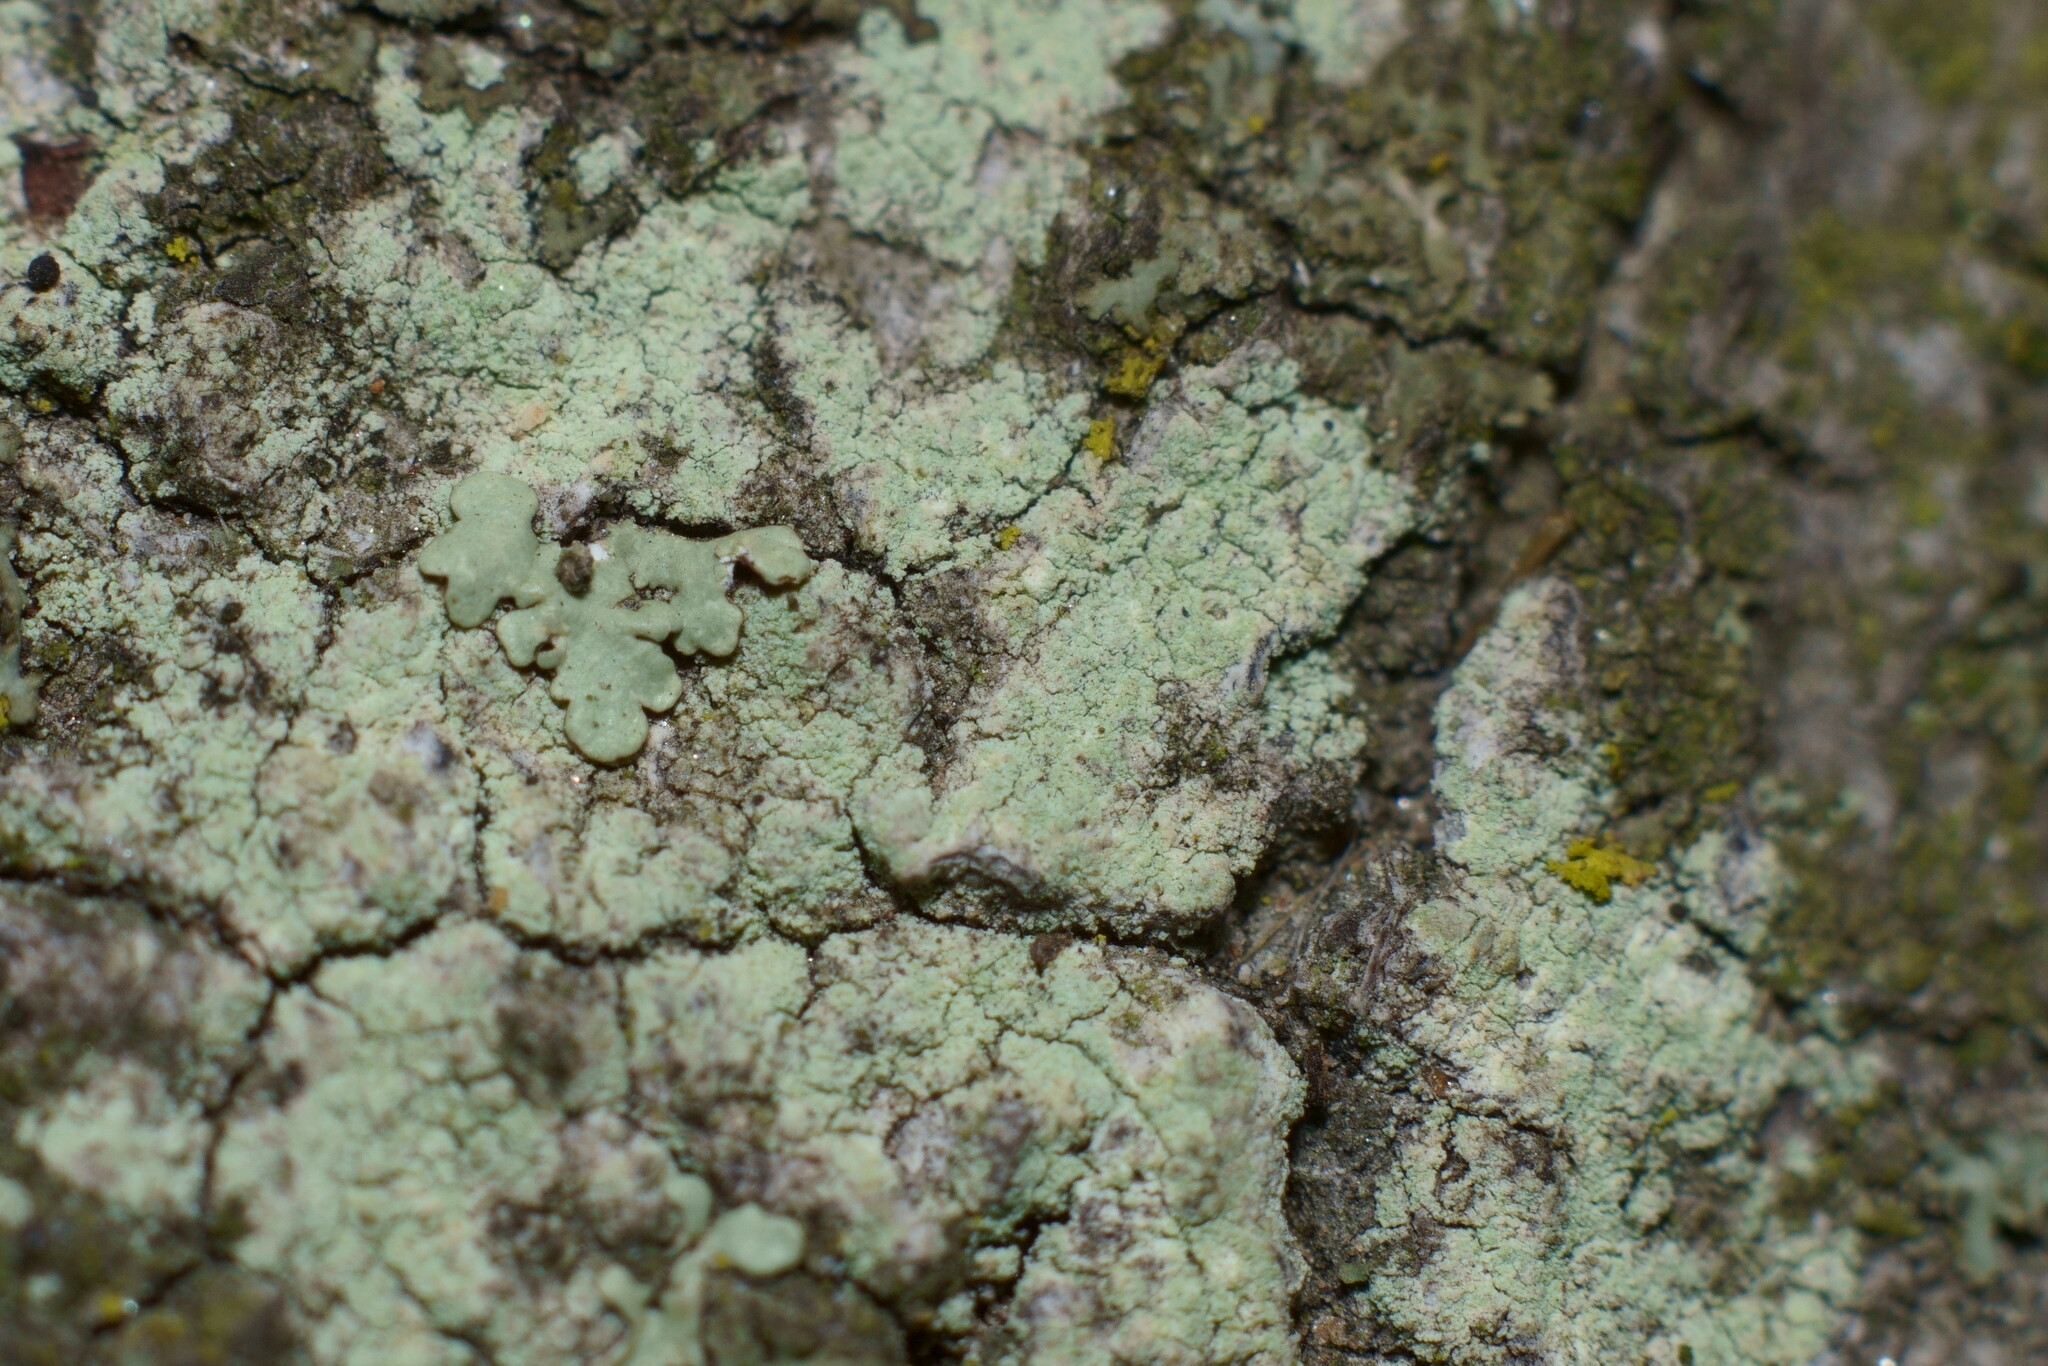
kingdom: Fungi
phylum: Ascomycota
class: Lecanoromycetes
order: Lecanorales
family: Lecanoraceae
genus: Lecanora
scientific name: Lecanora strobilina
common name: Mealy rim-lichen
